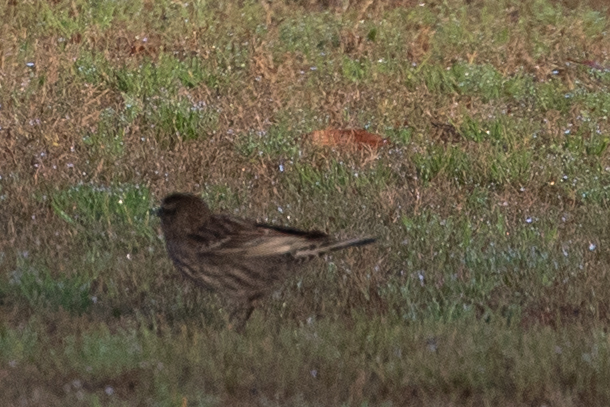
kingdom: Animalia
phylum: Chordata
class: Aves
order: Passeriformes
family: Icteridae
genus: Agelaius
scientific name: Agelaius phoeniceus
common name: Red-winged blackbird
